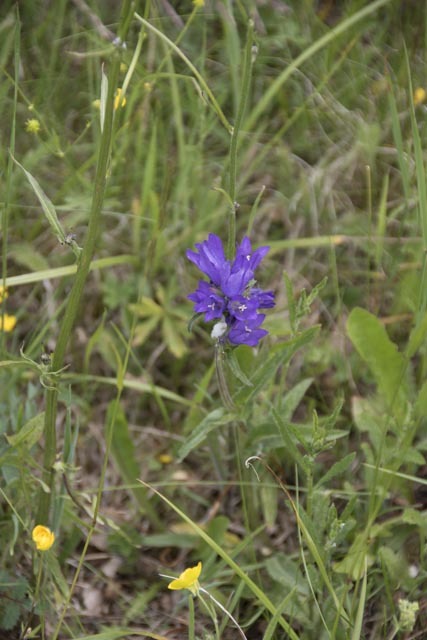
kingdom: Plantae
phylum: Tracheophyta
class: Magnoliopsida
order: Asterales
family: Campanulaceae
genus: Campanula
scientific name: Campanula glomerata
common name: Clustered bellflower
